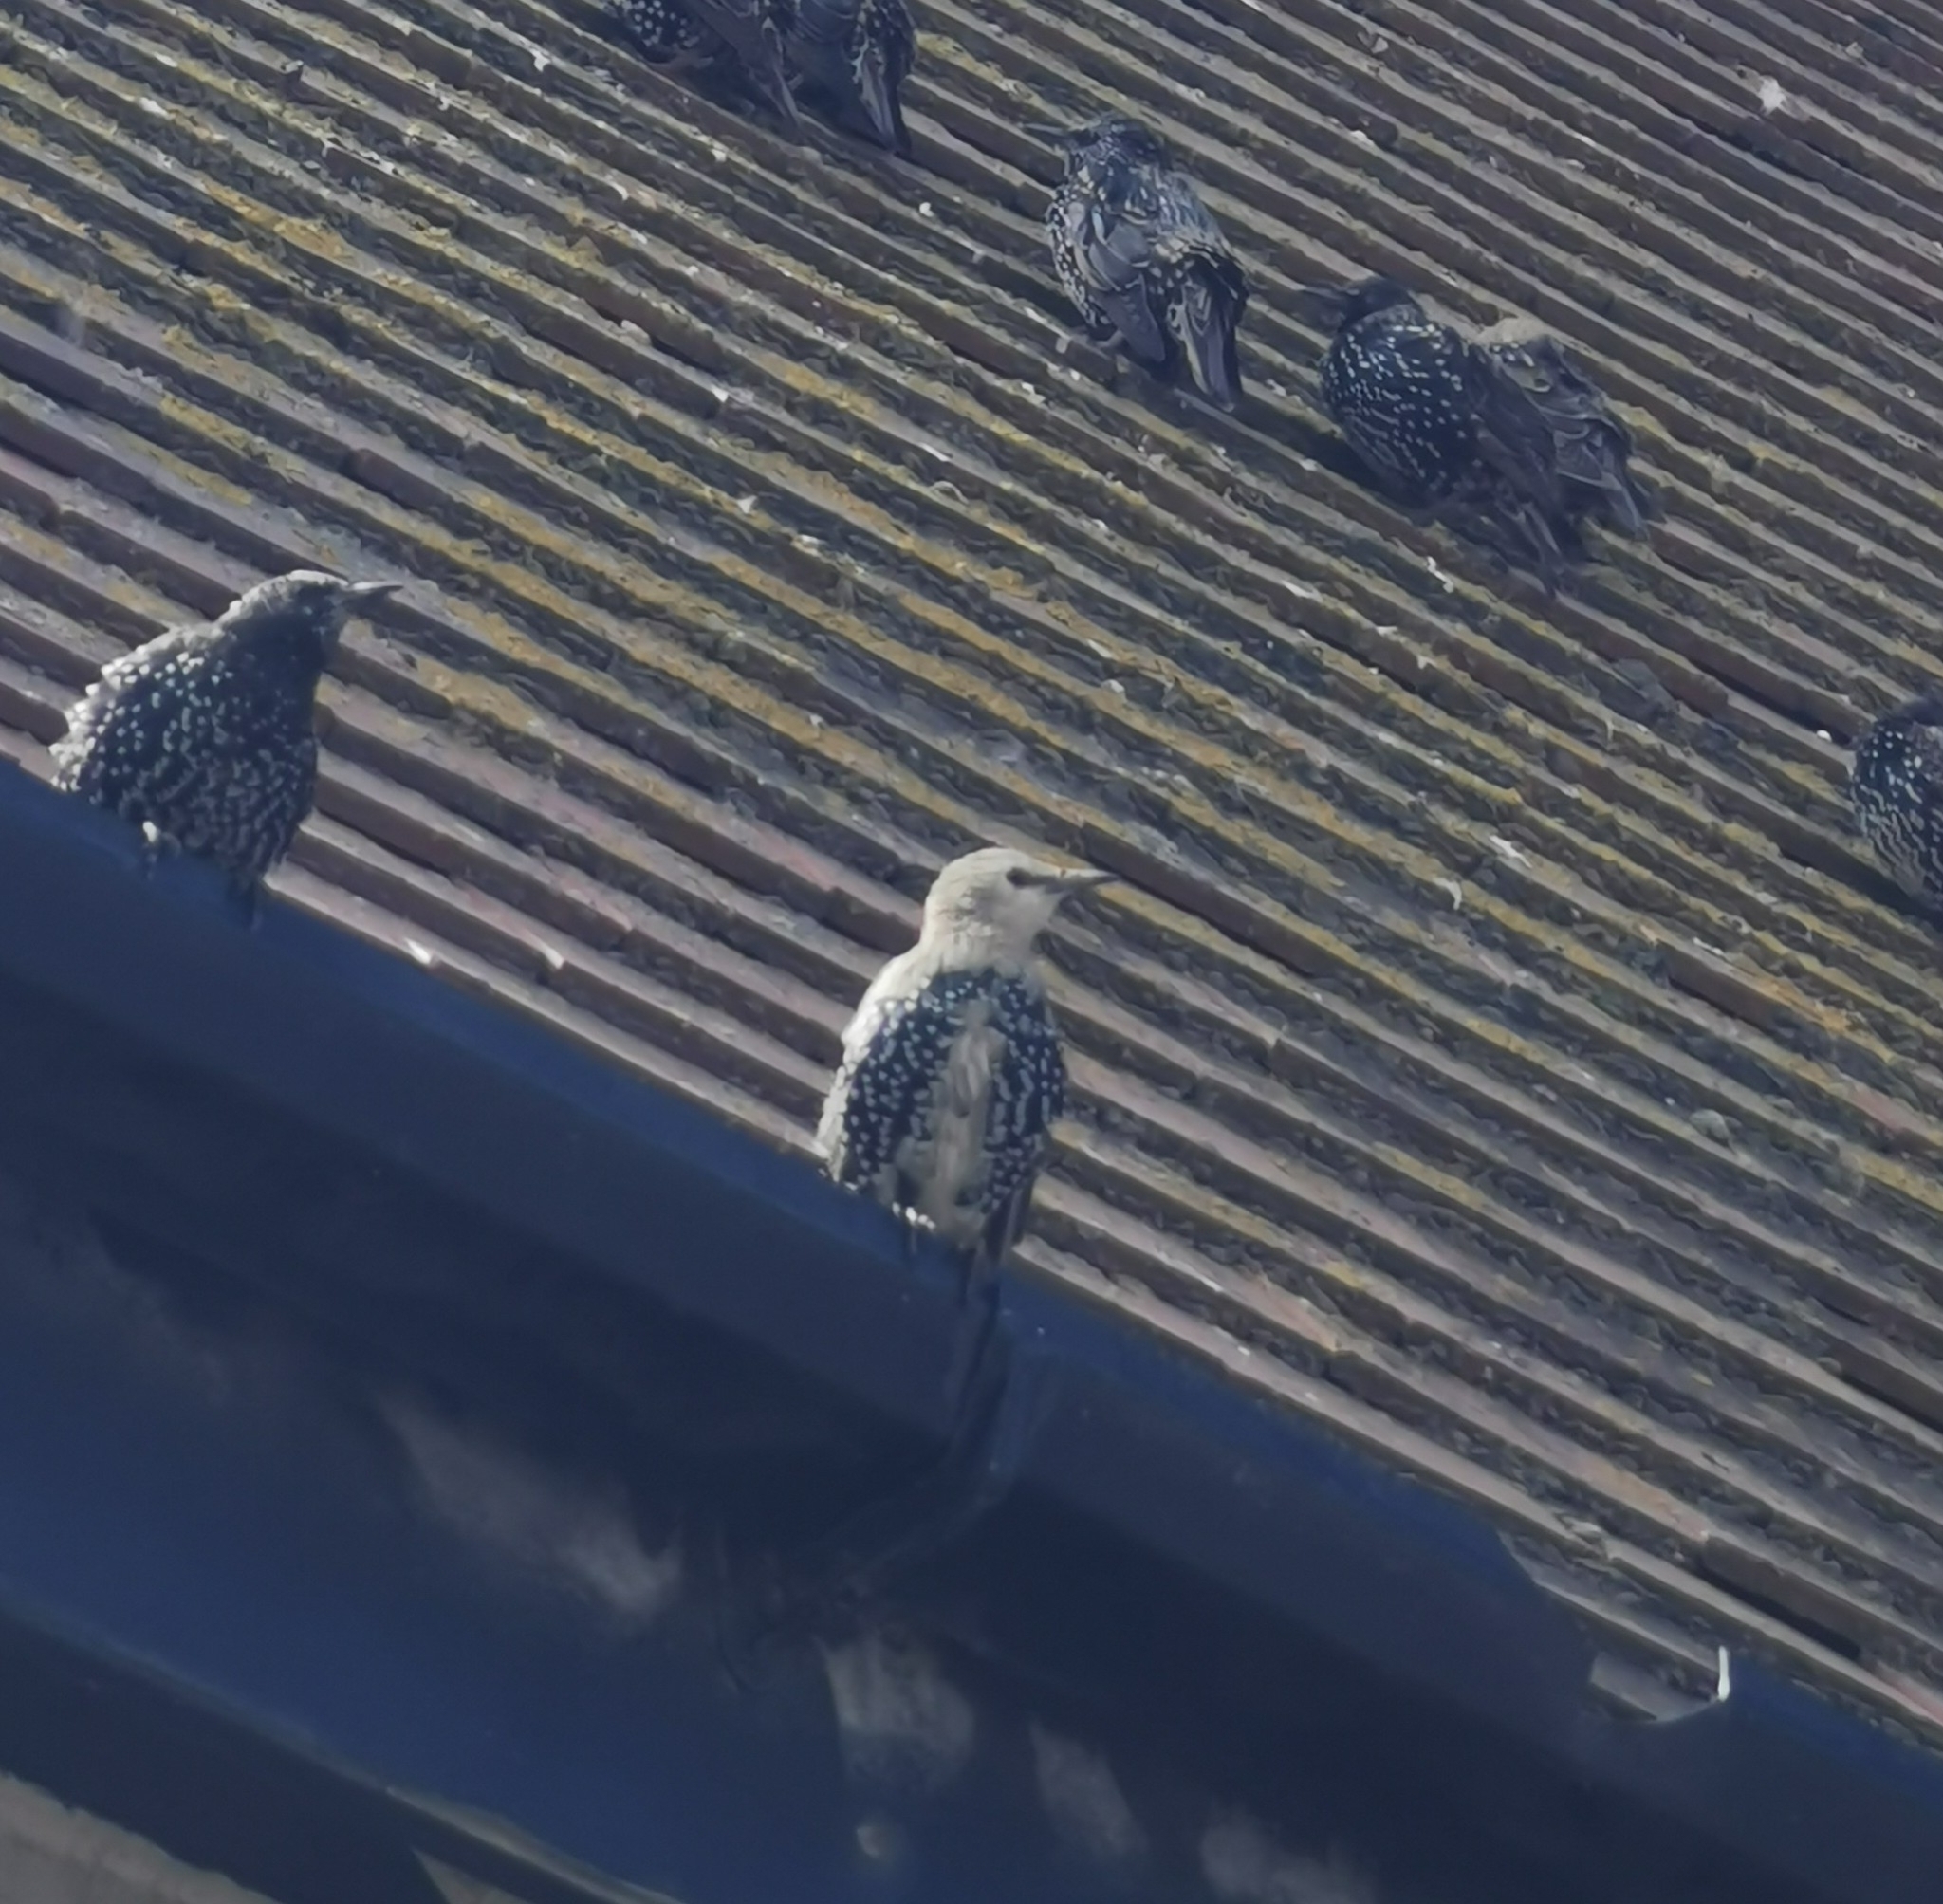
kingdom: Animalia
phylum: Chordata
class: Aves
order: Passeriformes
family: Sturnidae
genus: Sturnus
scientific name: Sturnus vulgaris
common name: Common starling
